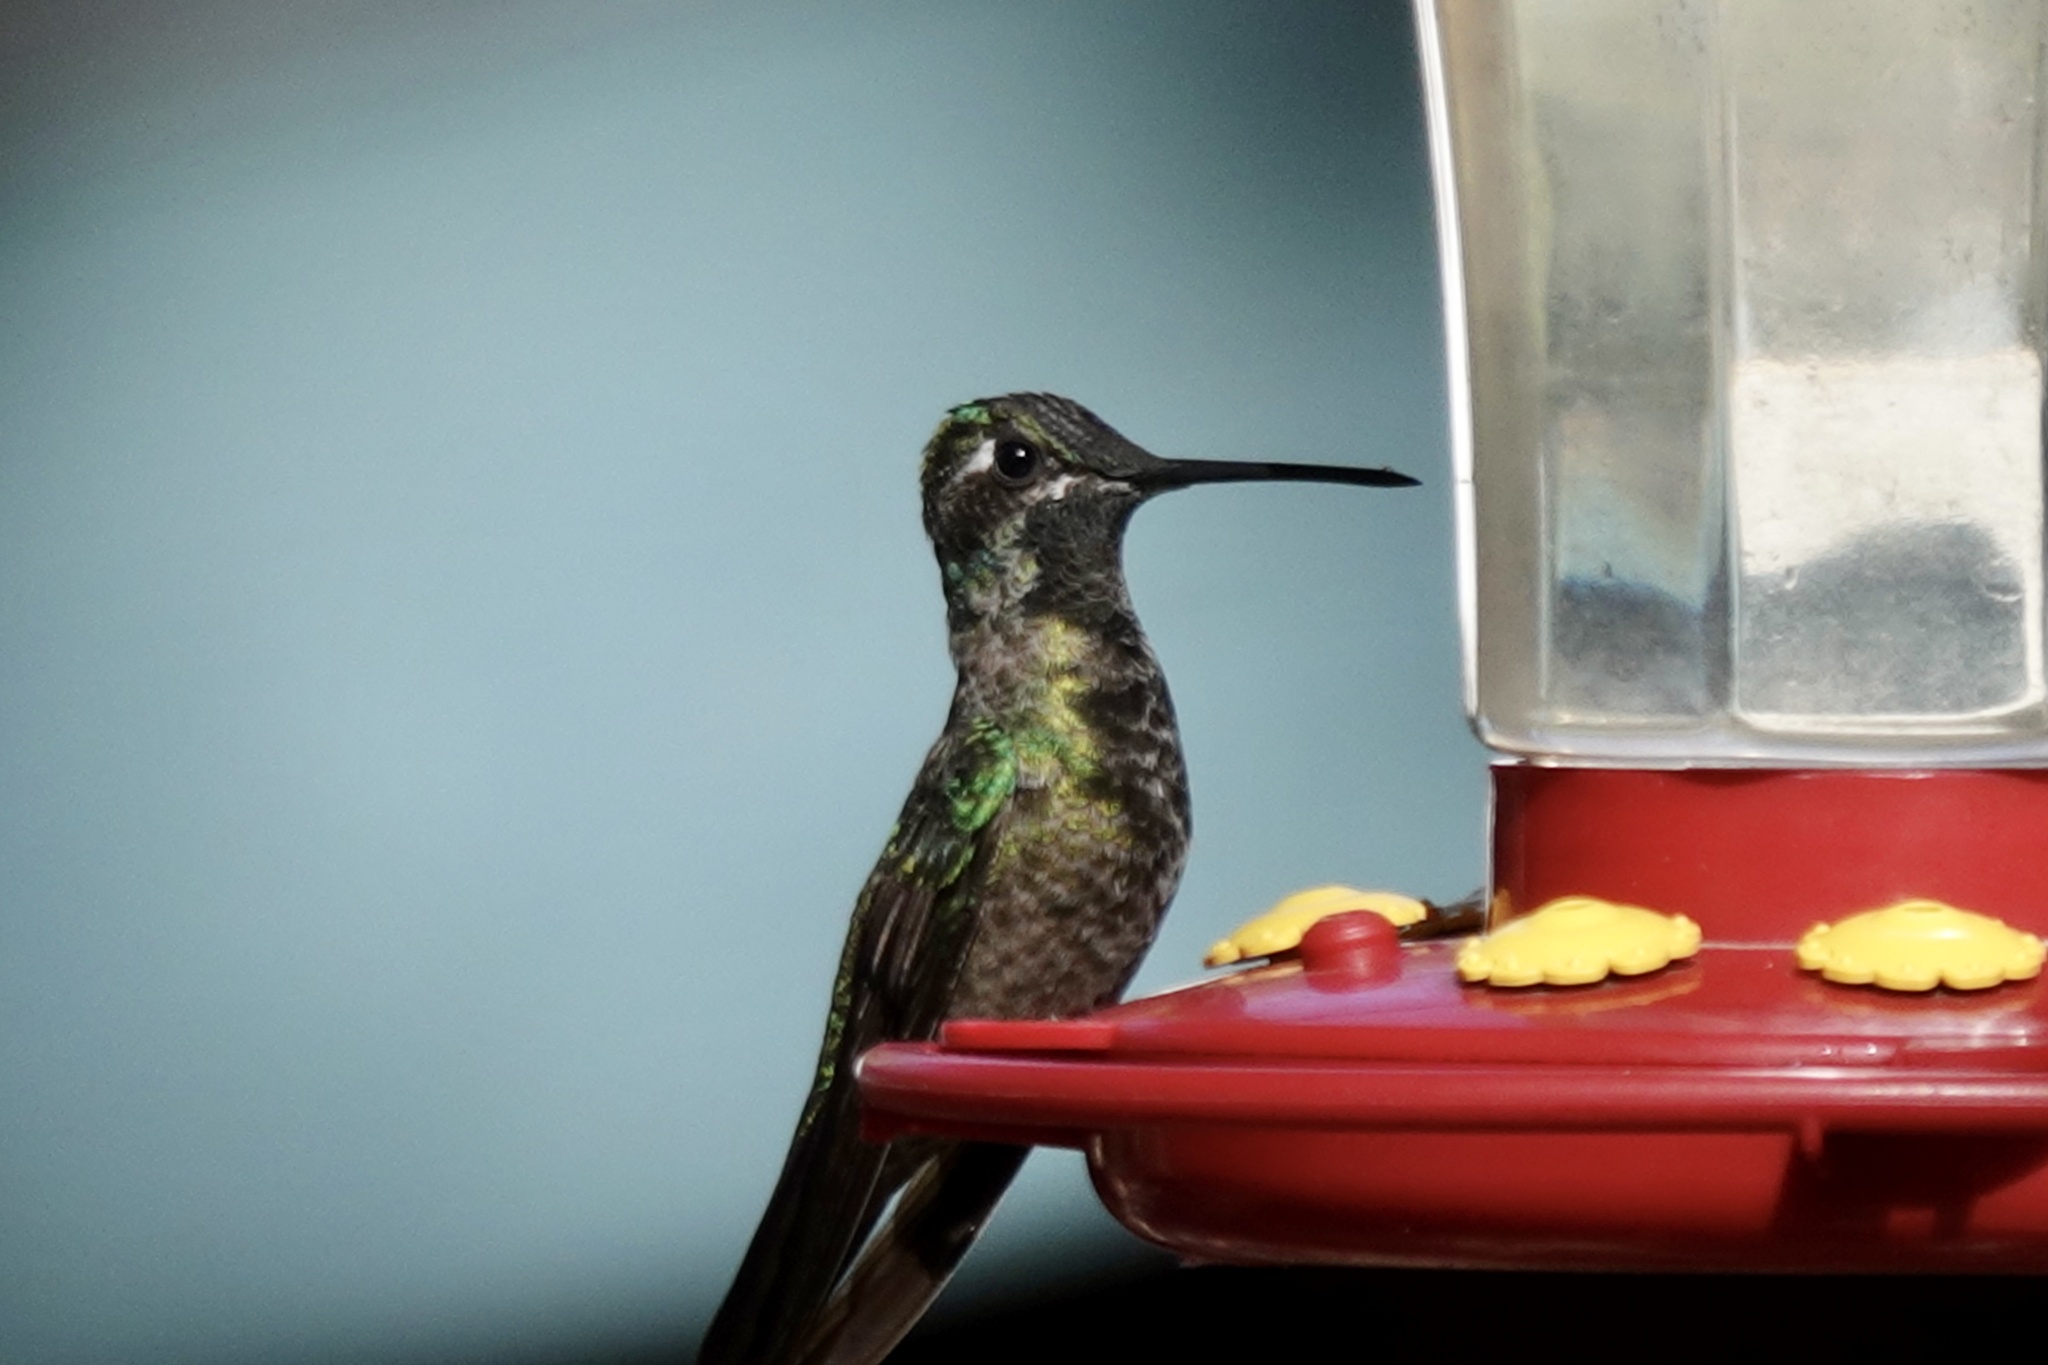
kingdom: Animalia
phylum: Chordata
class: Aves
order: Apodiformes
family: Trochilidae
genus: Eugenes
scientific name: Eugenes fulgens
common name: Magnificent hummingbird
